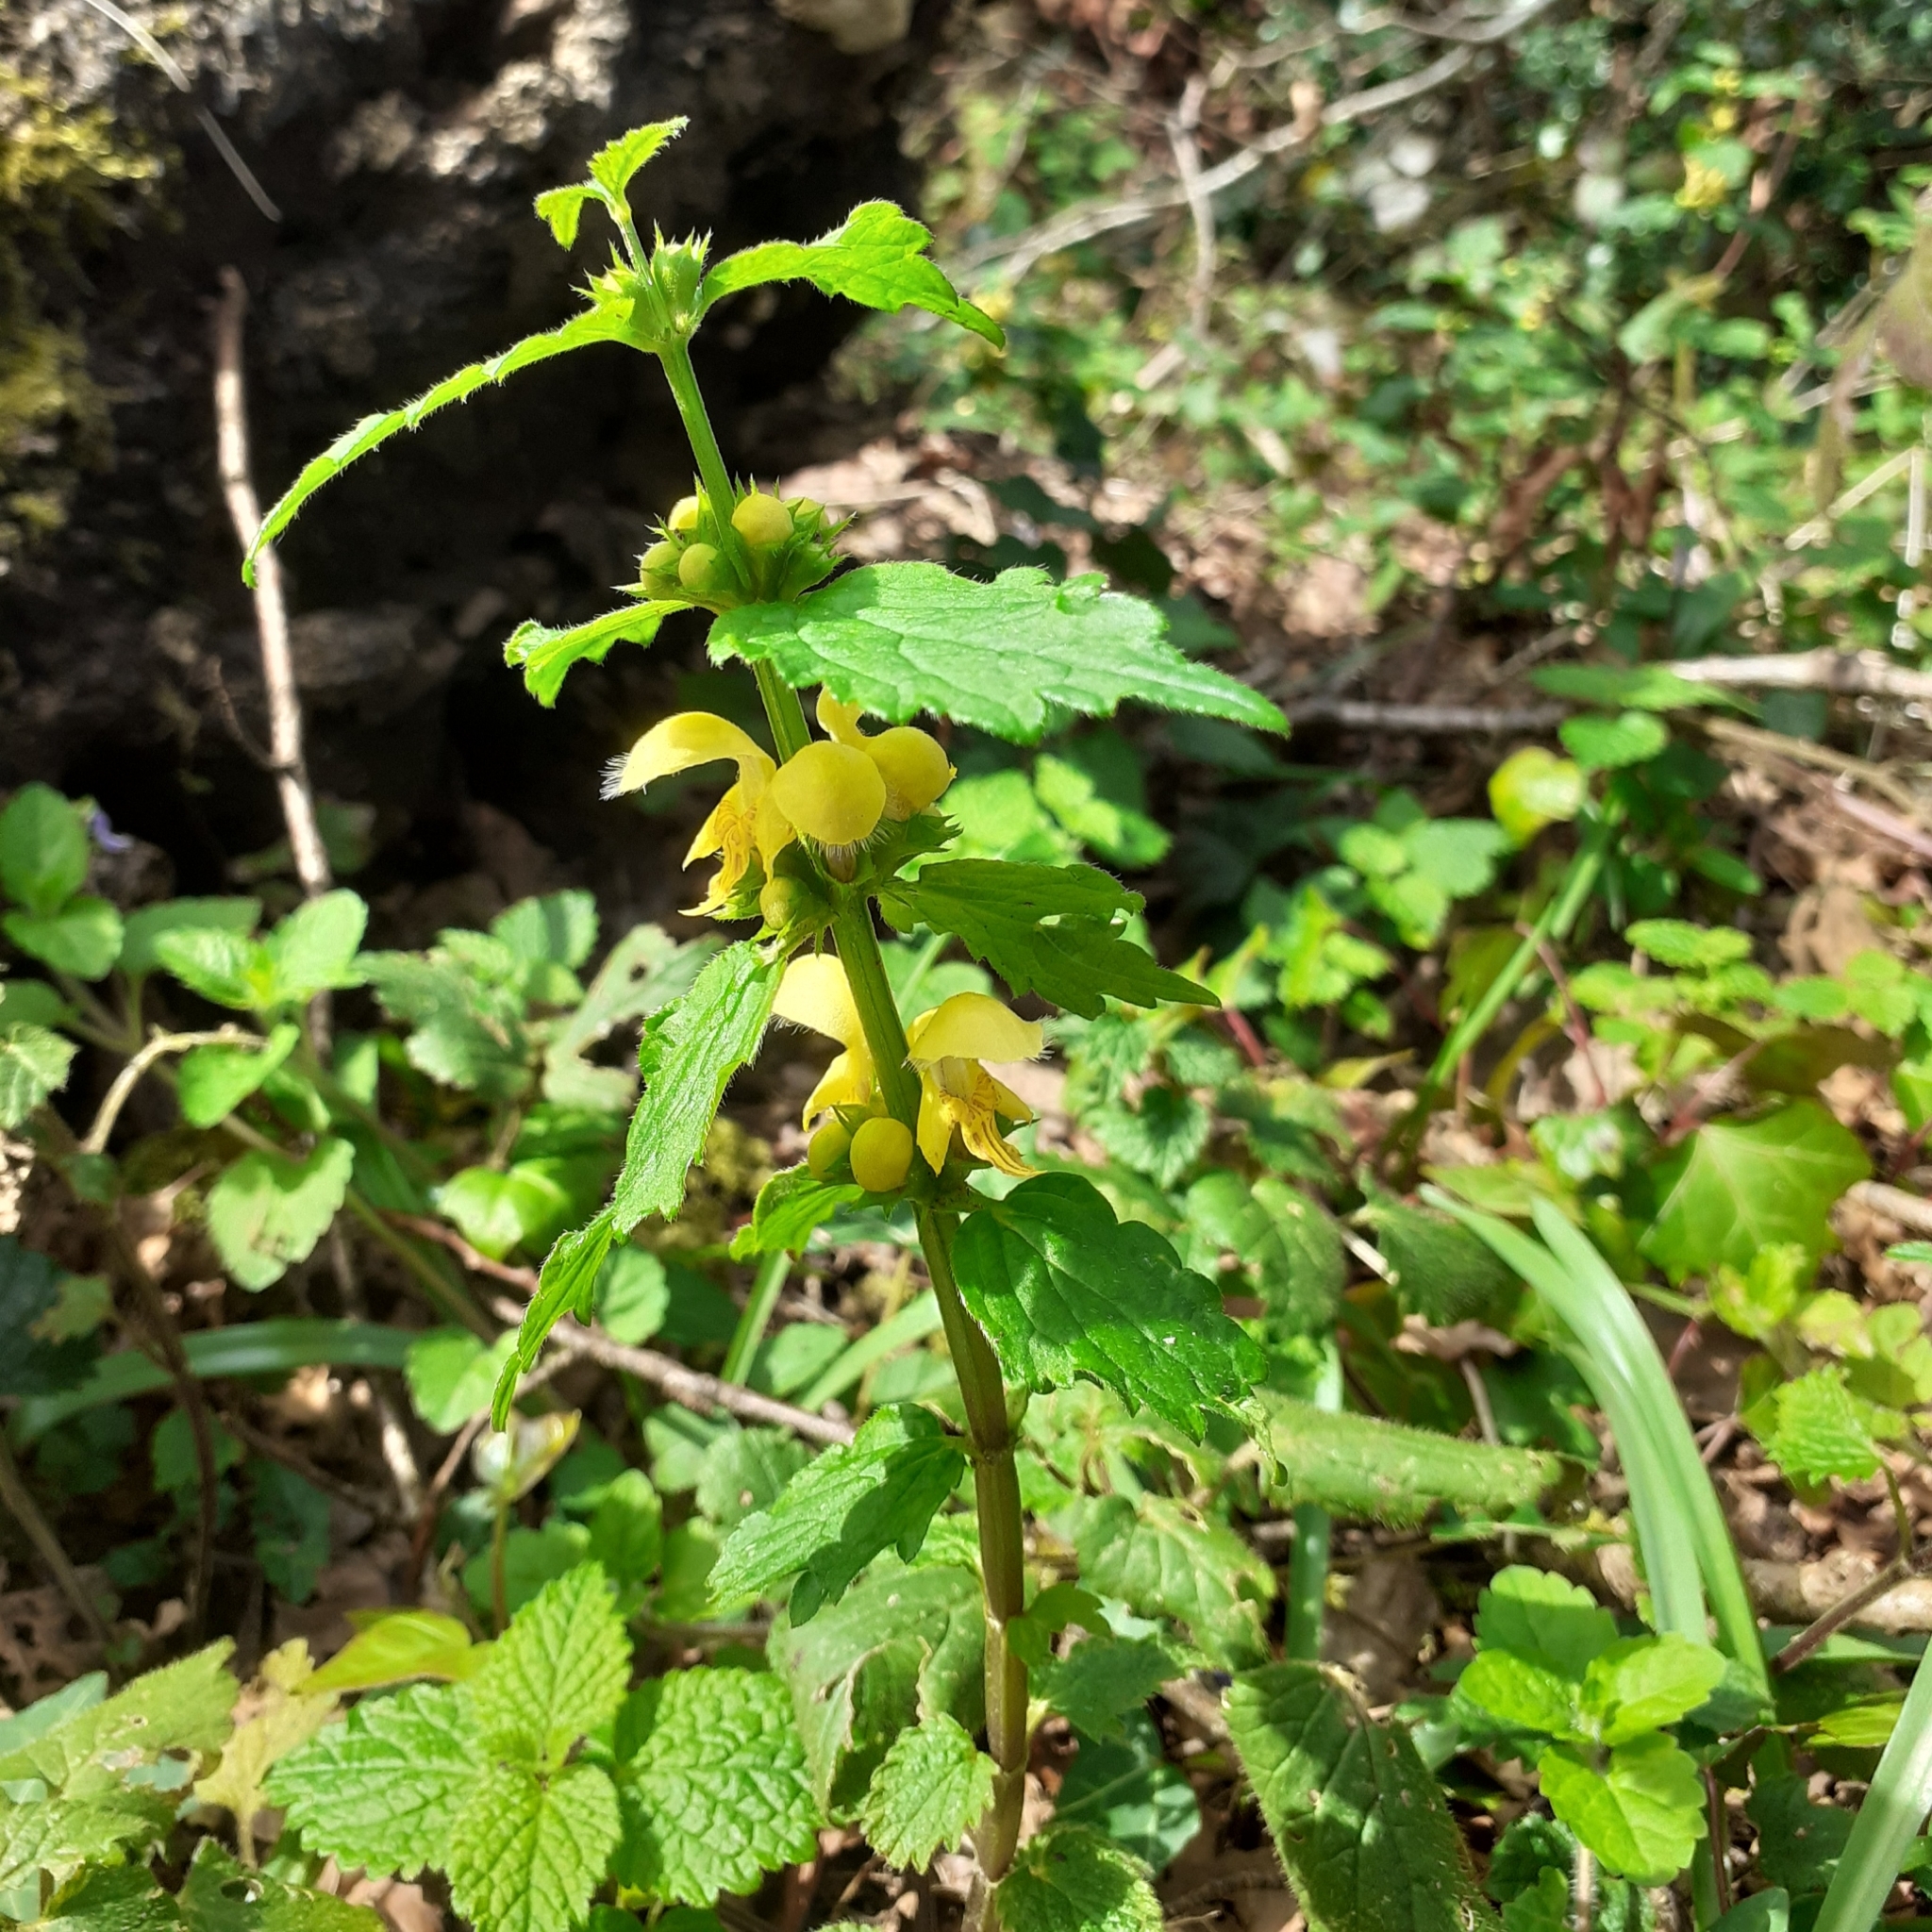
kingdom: Plantae
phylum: Tracheophyta
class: Magnoliopsida
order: Lamiales
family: Lamiaceae
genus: Lamium
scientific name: Lamium galeobdolon
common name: Yellow archangel
